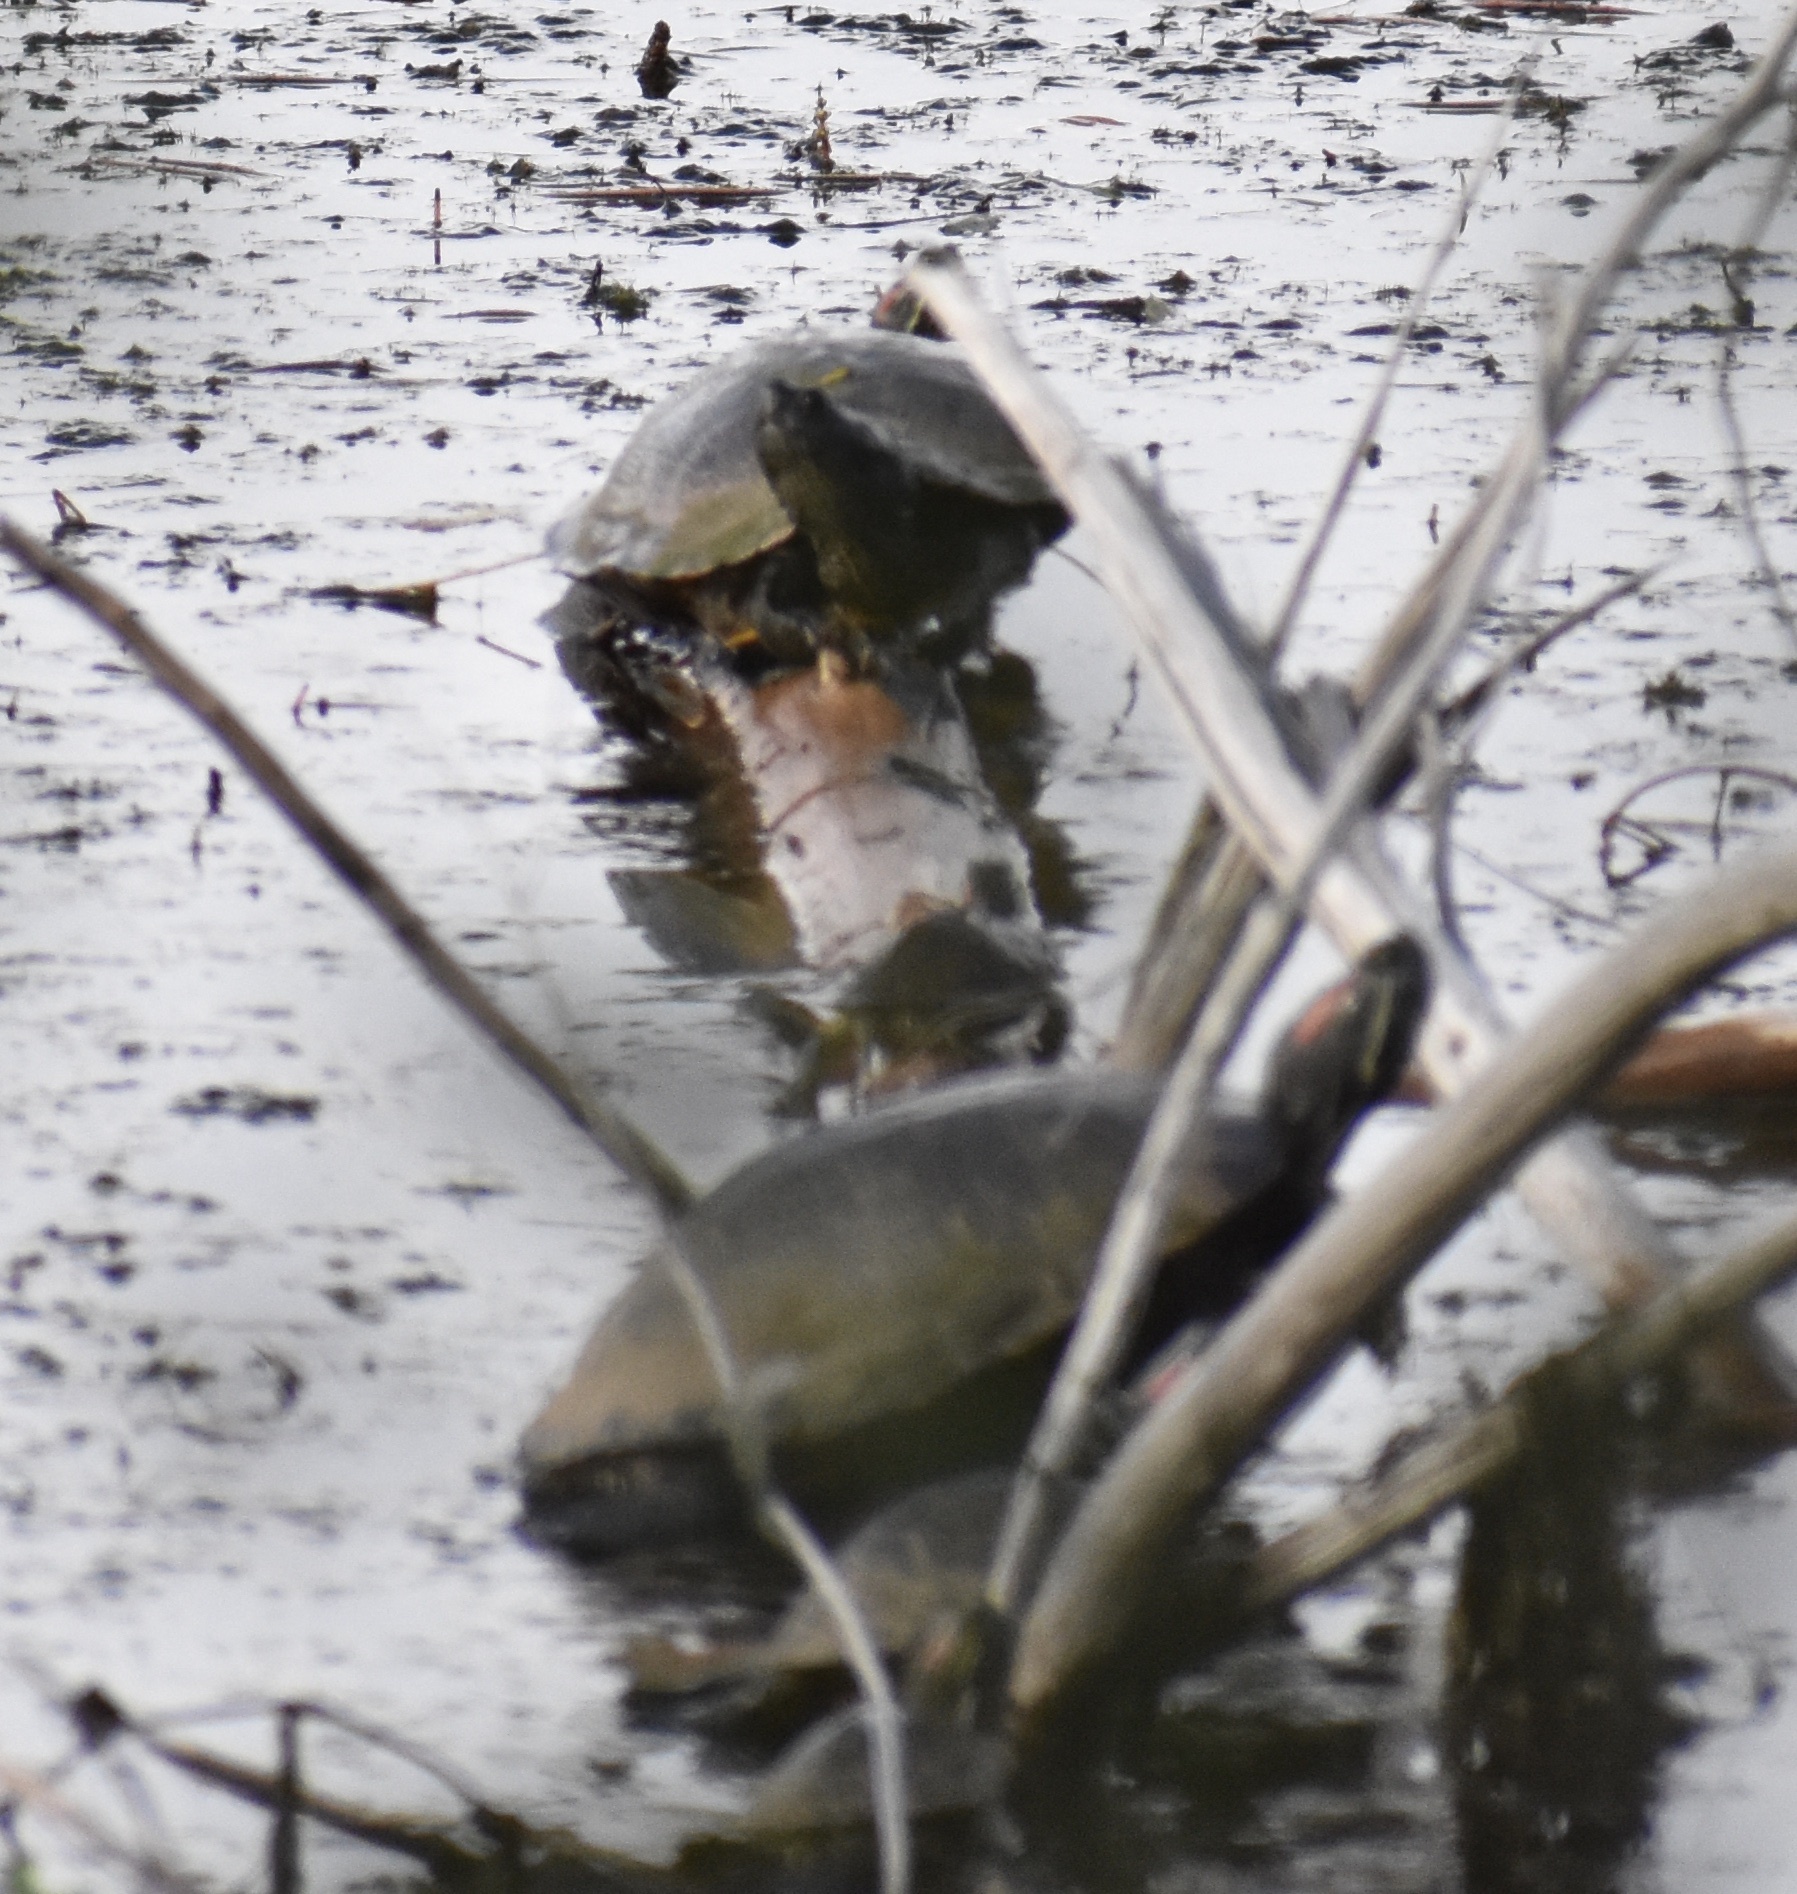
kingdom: Animalia
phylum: Chordata
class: Testudines
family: Emydidae
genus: Trachemys
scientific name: Trachemys scripta
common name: Slider
